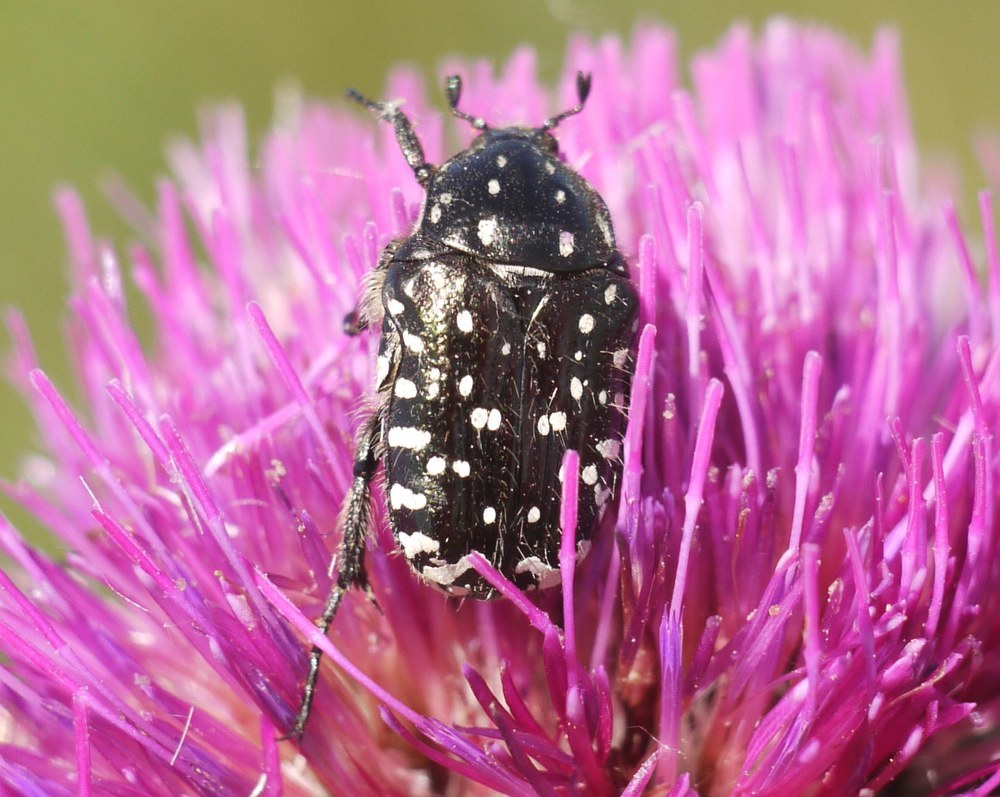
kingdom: Animalia
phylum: Arthropoda
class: Insecta
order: Coleoptera
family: Scarabaeidae
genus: Oxythyrea
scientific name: Oxythyrea funesta
